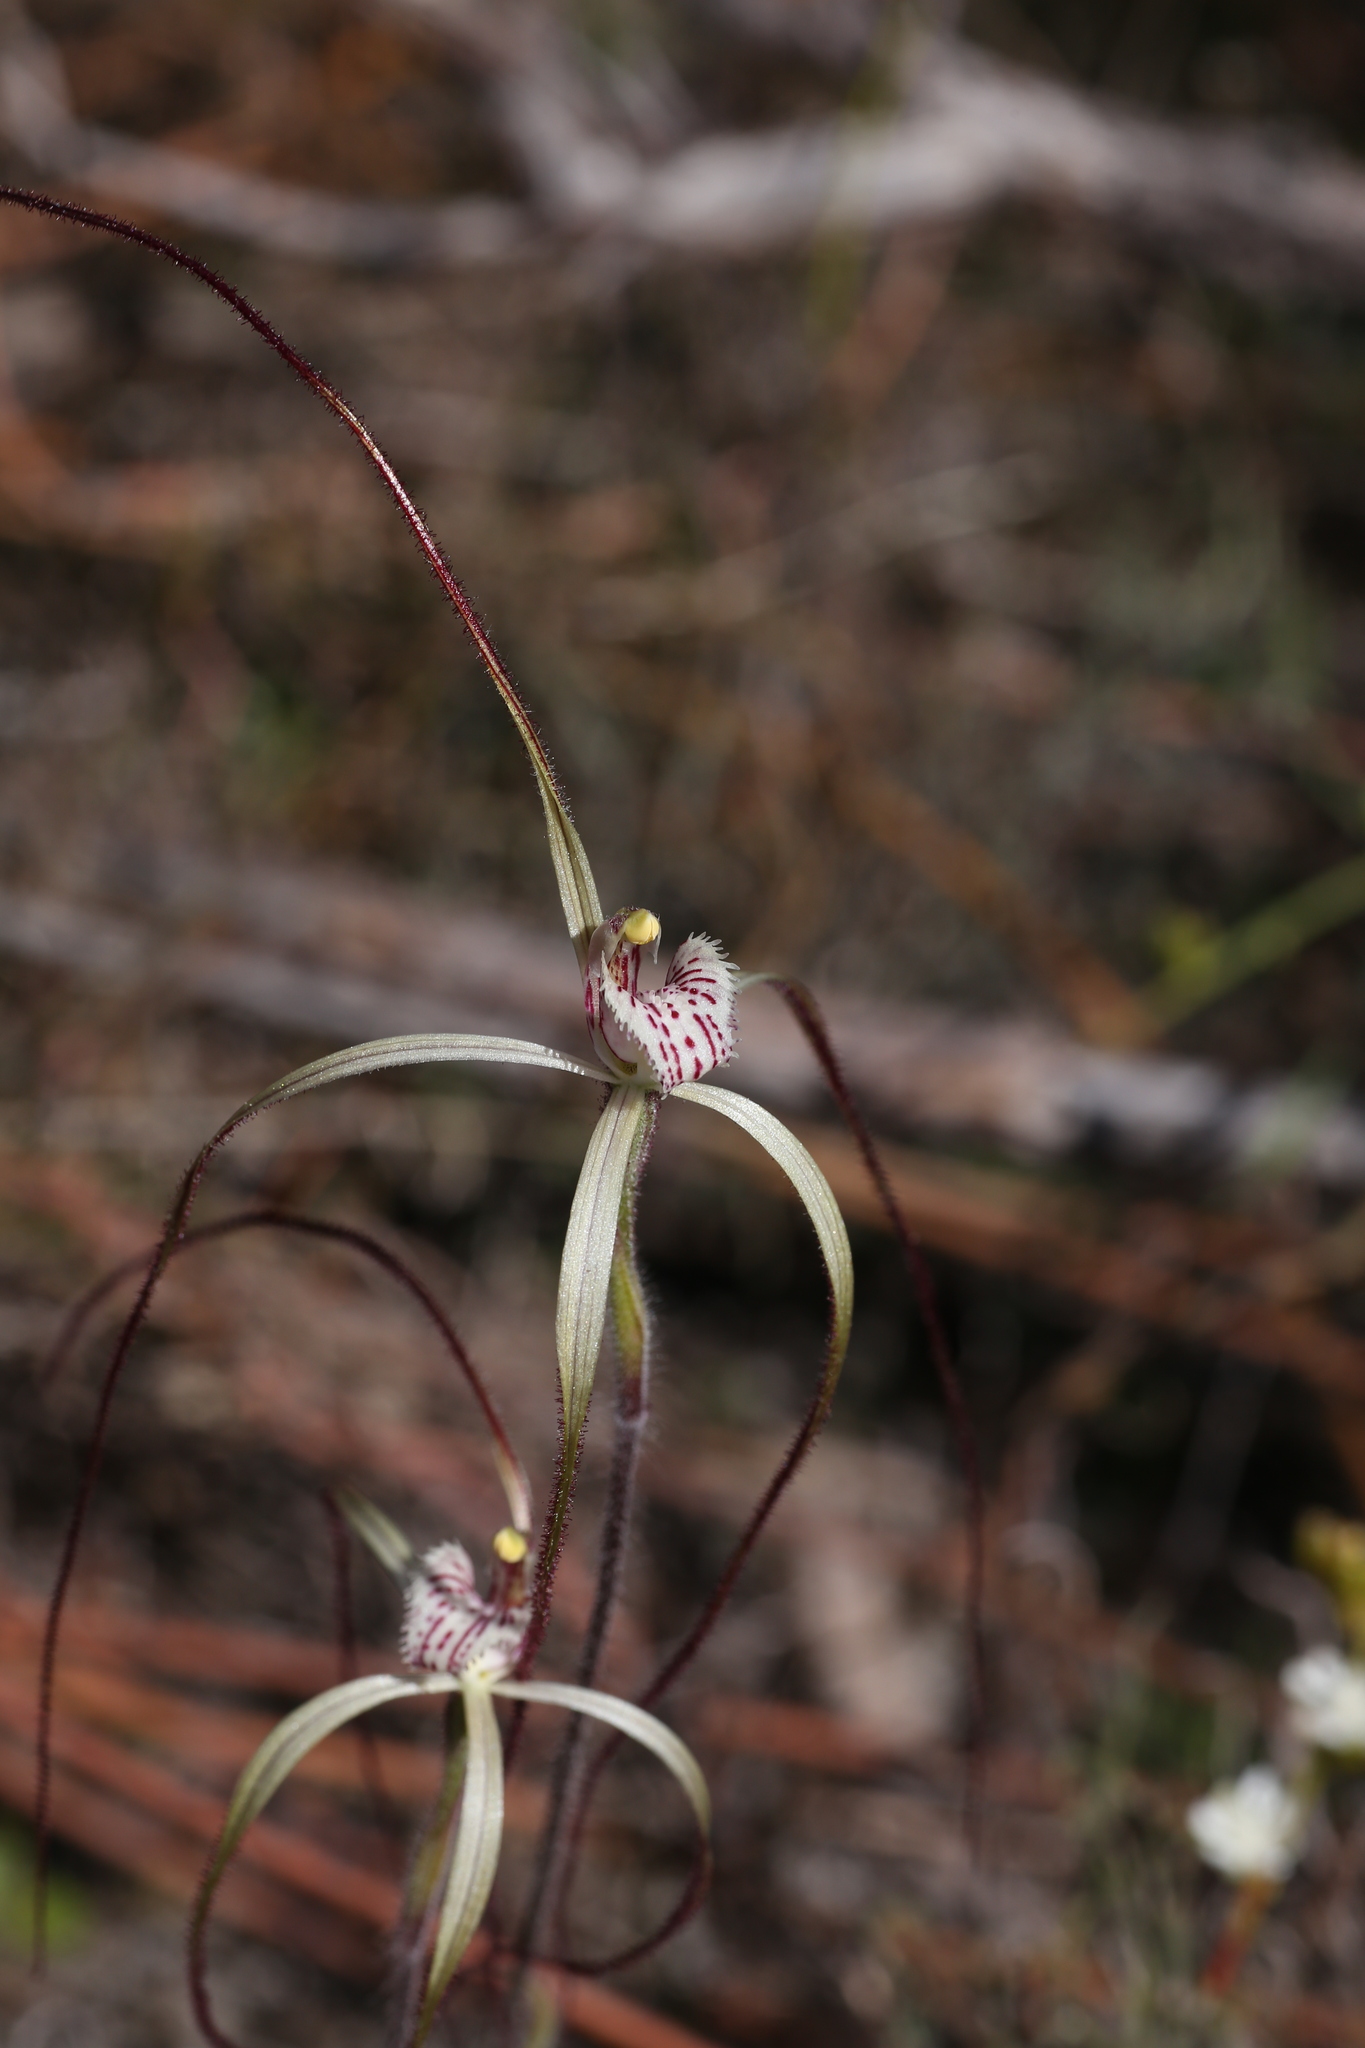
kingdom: Plantae
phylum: Tracheophyta
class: Liliopsida
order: Asparagales
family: Orchidaceae
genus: Caladenia
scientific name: Caladenia varians
